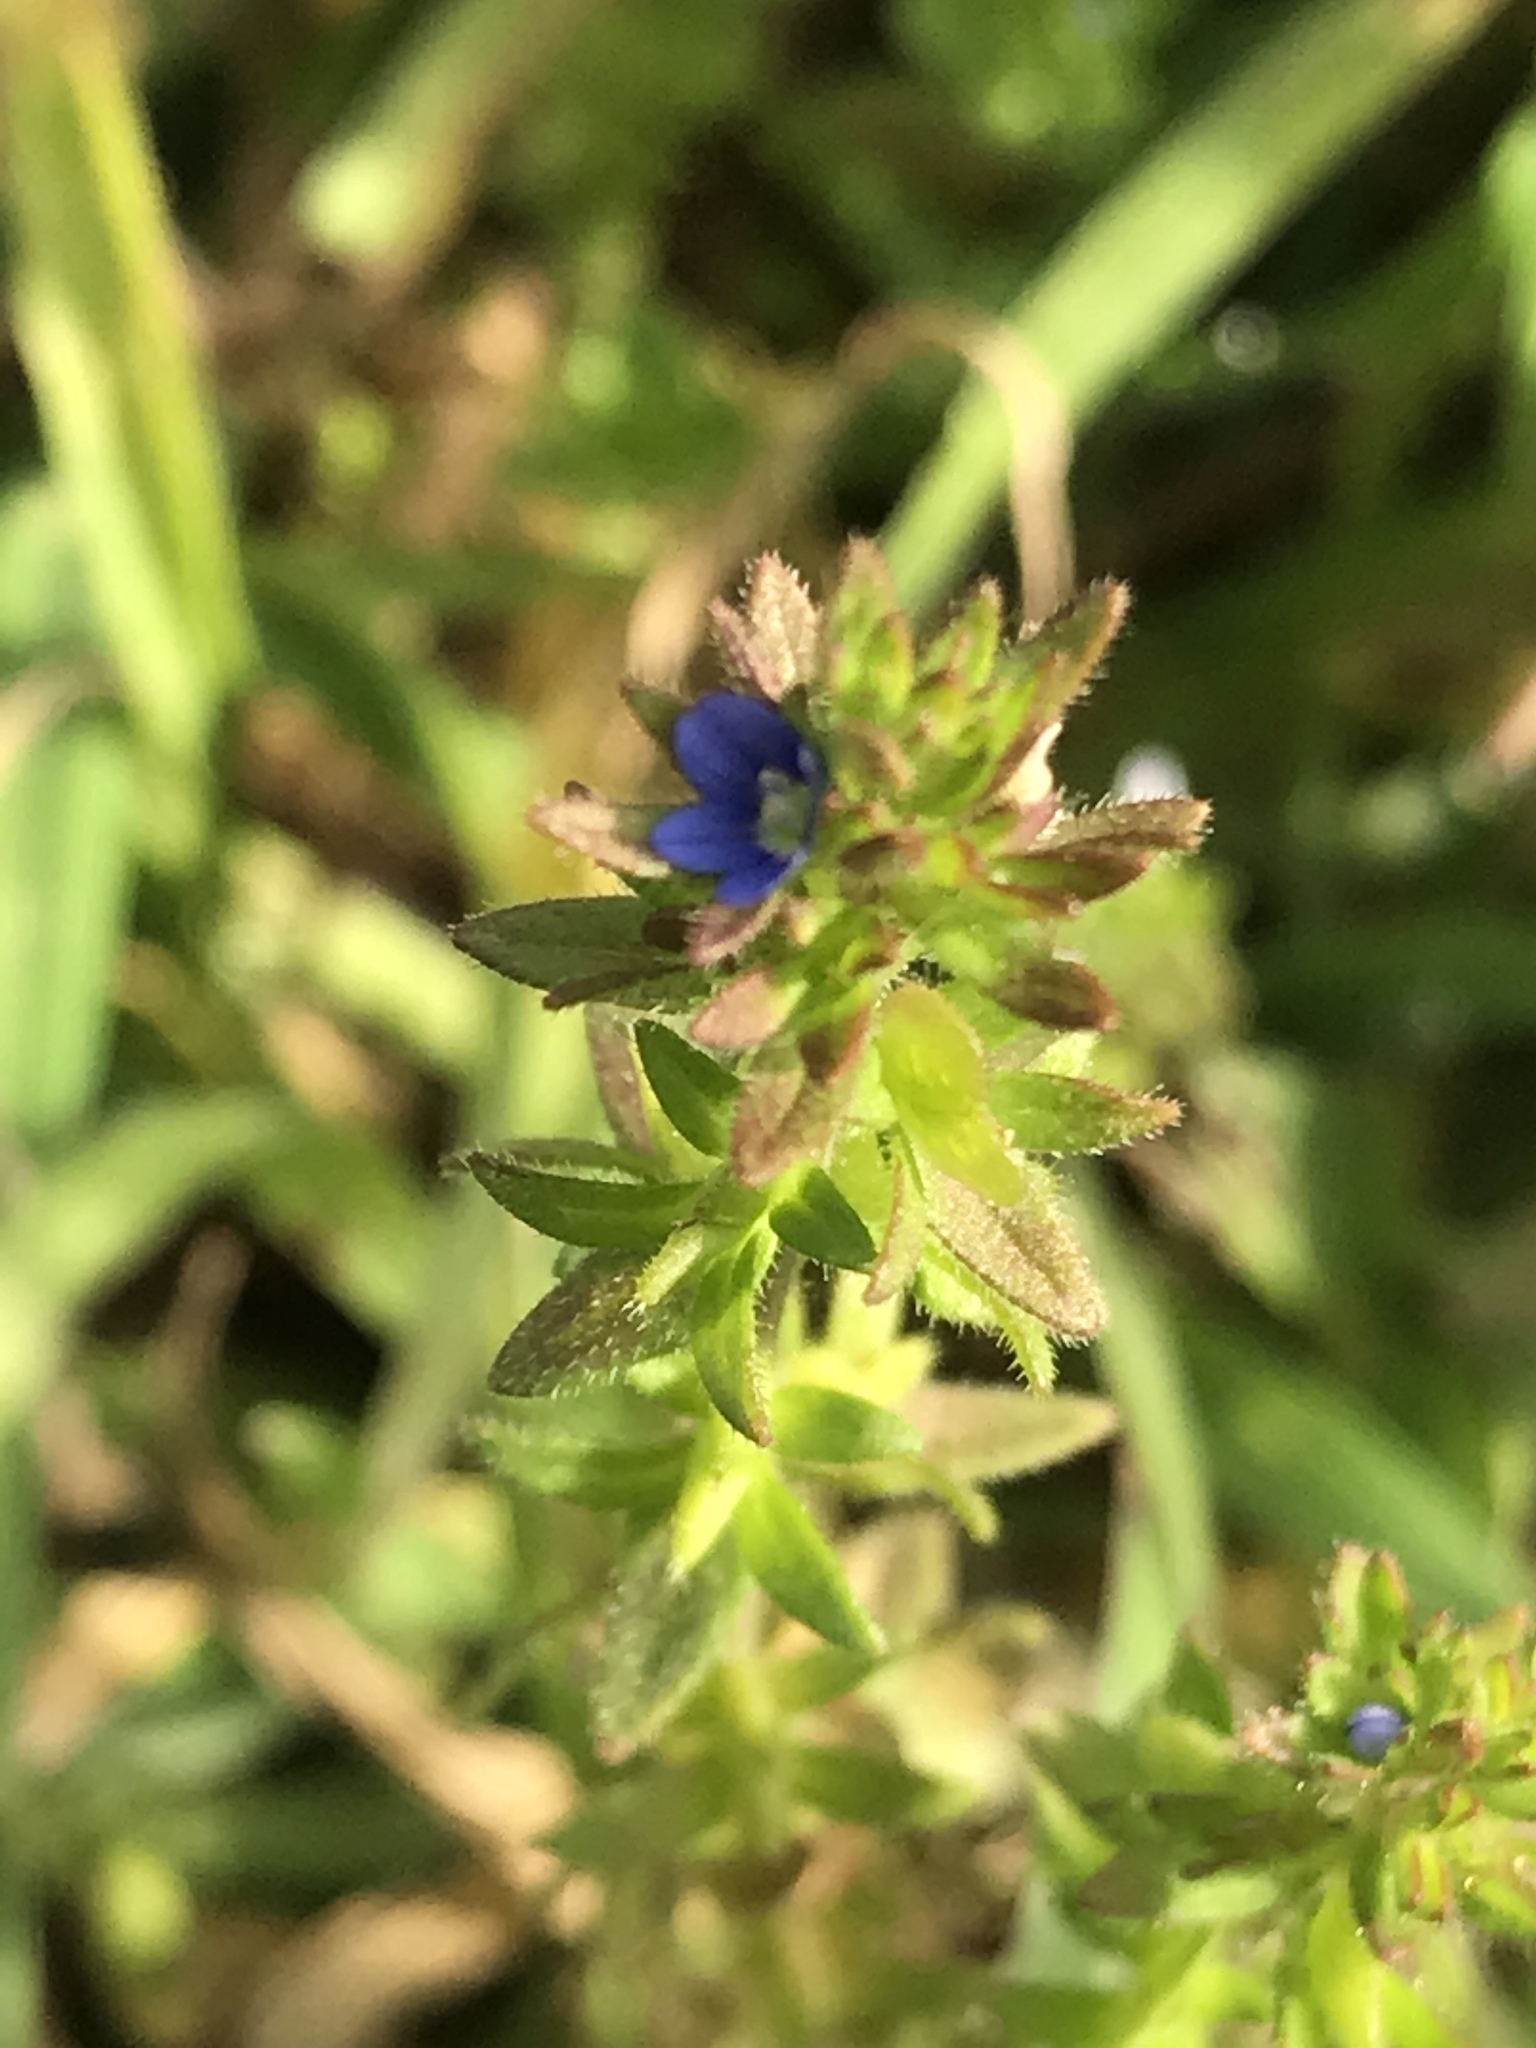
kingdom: Plantae
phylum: Tracheophyta
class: Magnoliopsida
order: Lamiales
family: Plantaginaceae
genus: Veronica
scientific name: Veronica arvensis
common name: Corn speedwell
